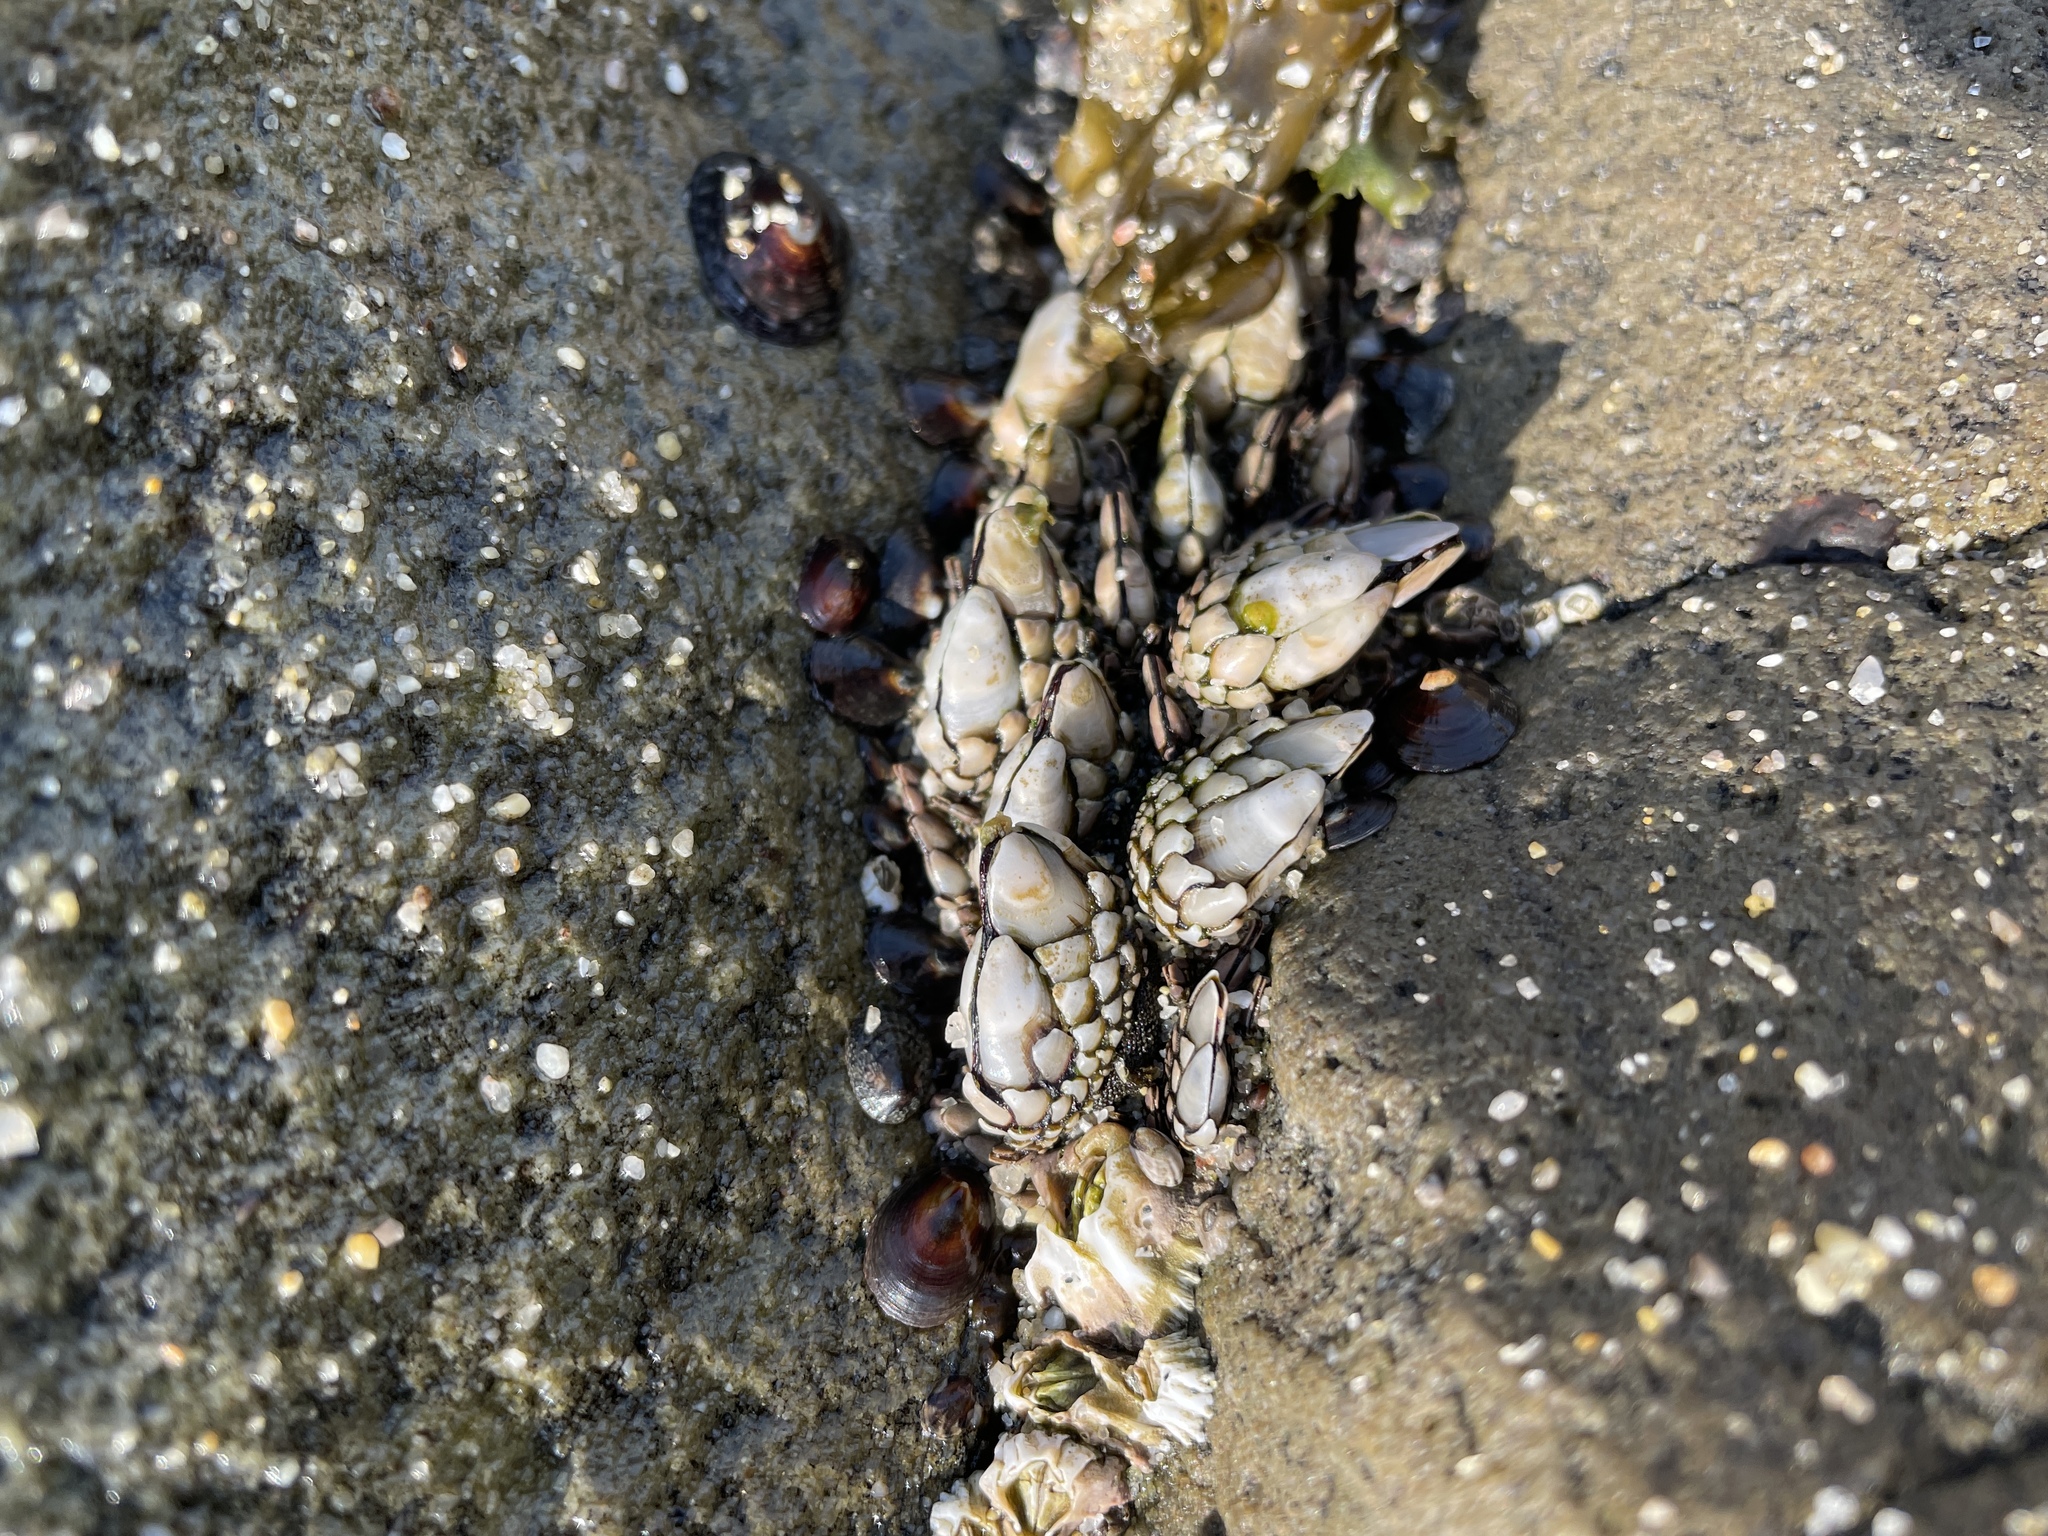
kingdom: Animalia
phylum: Arthropoda
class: Maxillopoda
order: Pedunculata
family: Pollicipedidae
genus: Pollicipes
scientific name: Pollicipes polymerus
